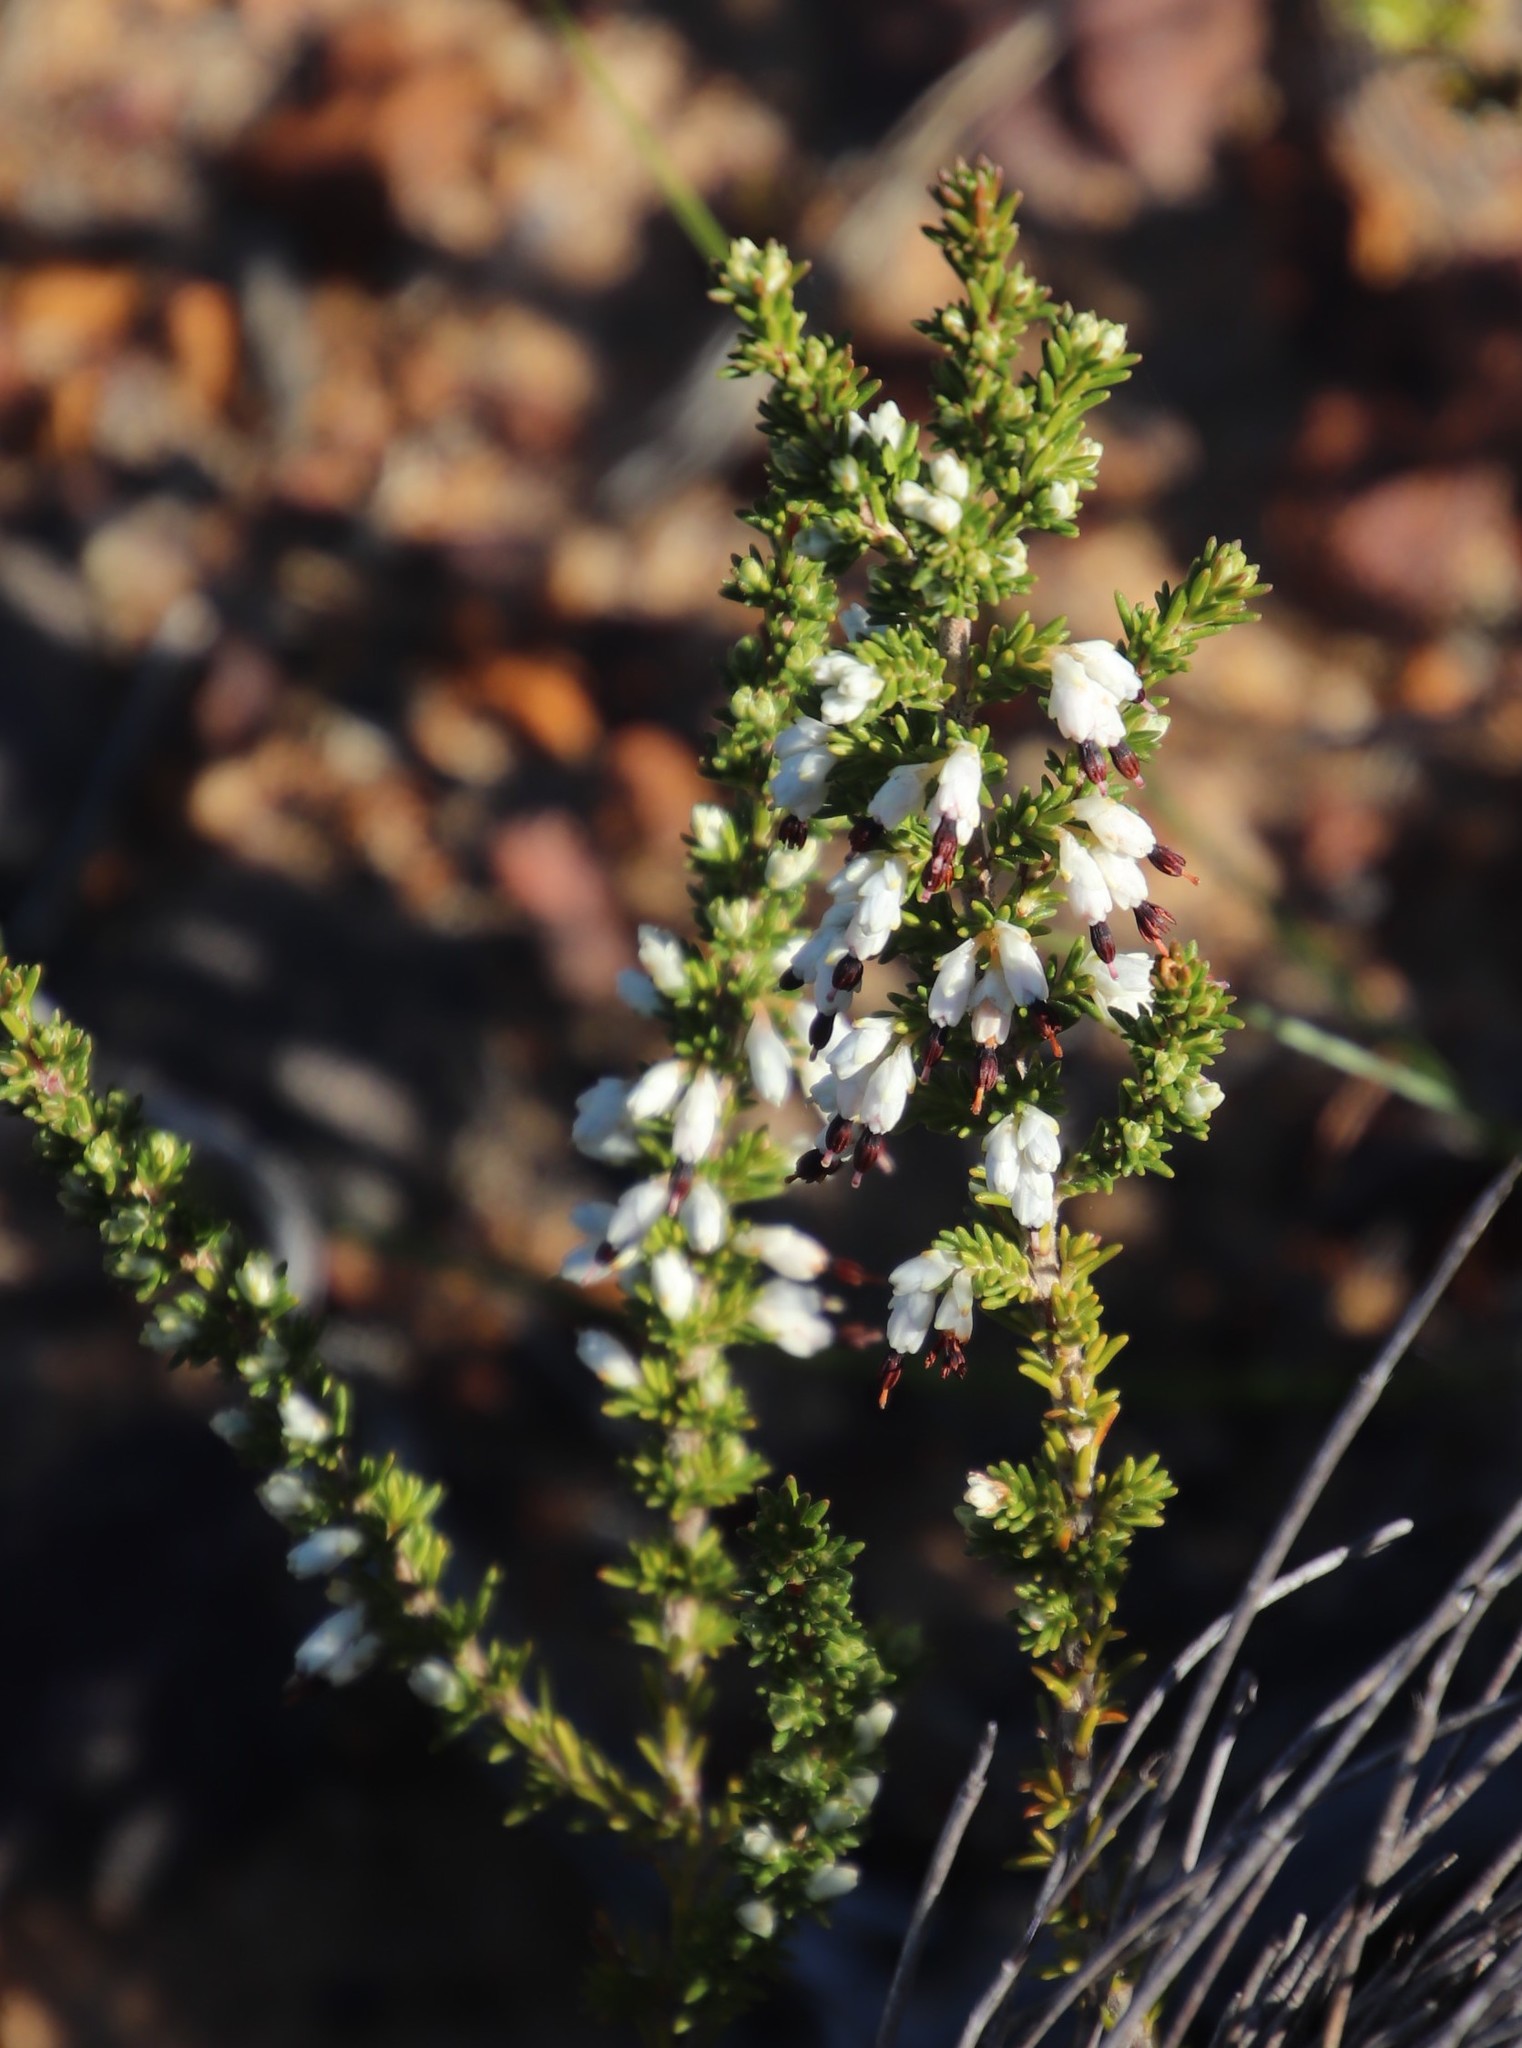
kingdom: Plantae
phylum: Tracheophyta
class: Magnoliopsida
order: Ericales
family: Ericaceae
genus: Erica
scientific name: Erica imbricata
